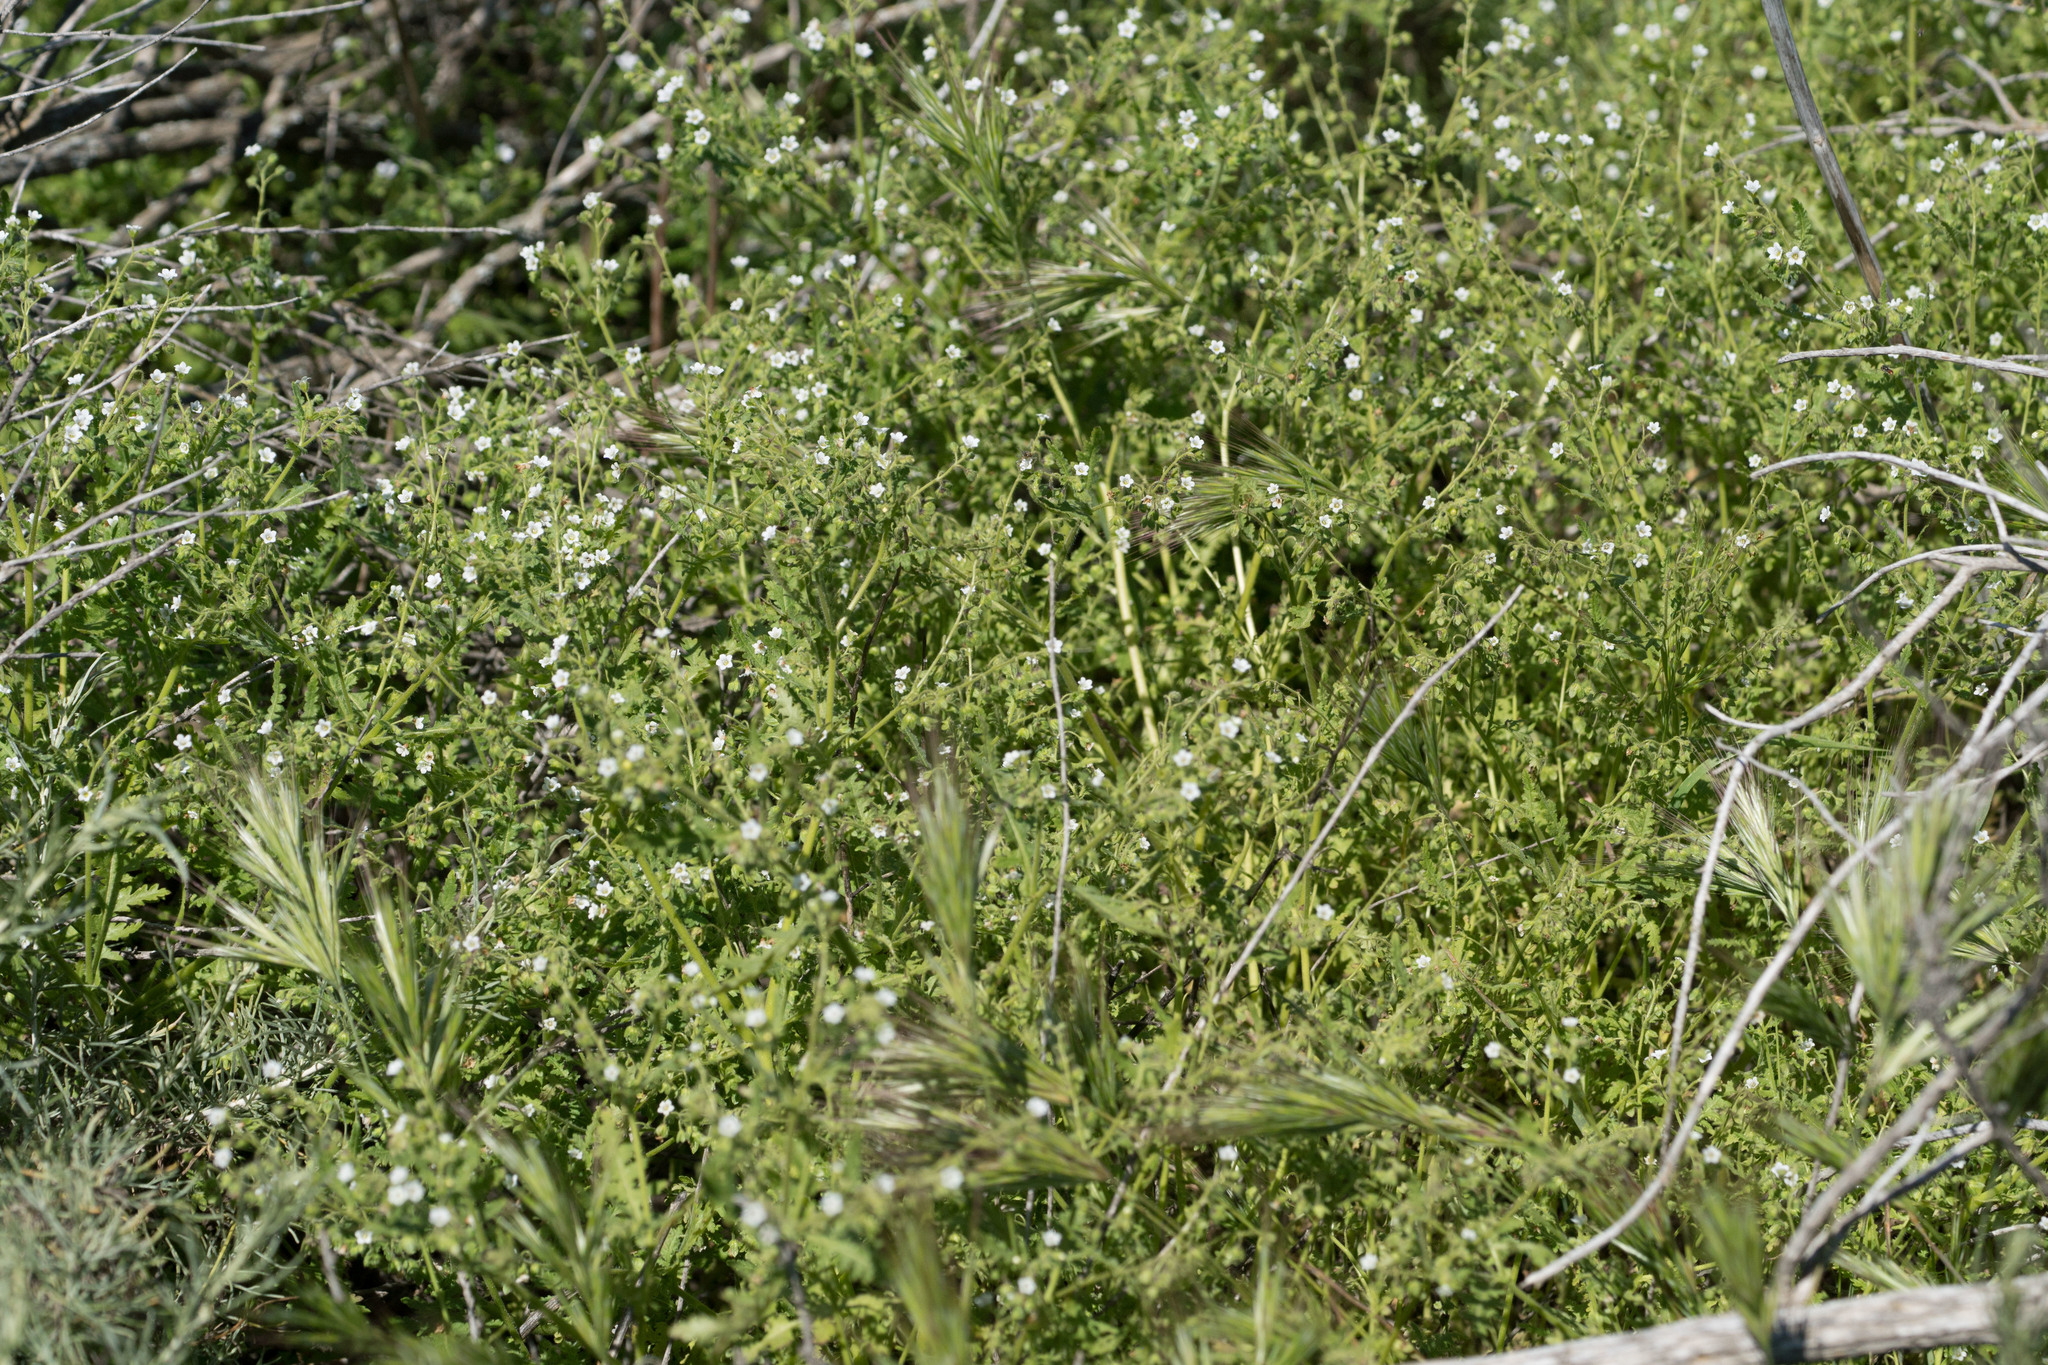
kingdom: Plantae
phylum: Tracheophyta
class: Magnoliopsida
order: Boraginales
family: Hydrophyllaceae
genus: Eucrypta
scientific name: Eucrypta chrysanthemifolia
